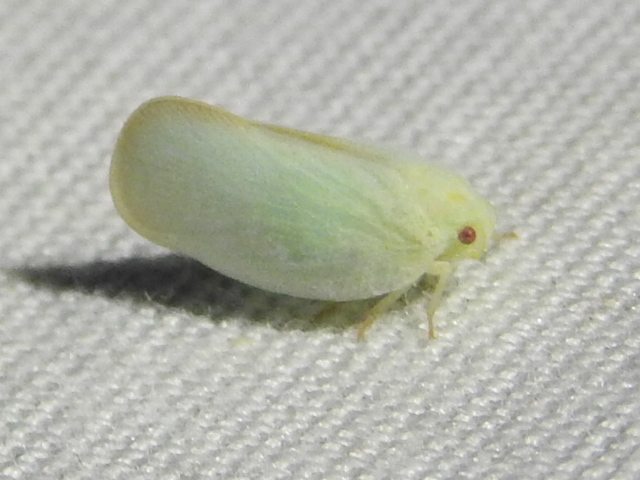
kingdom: Animalia
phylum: Arthropoda
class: Insecta
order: Hemiptera
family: Flatidae
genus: Ormenoides
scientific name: Ormenoides venusta
